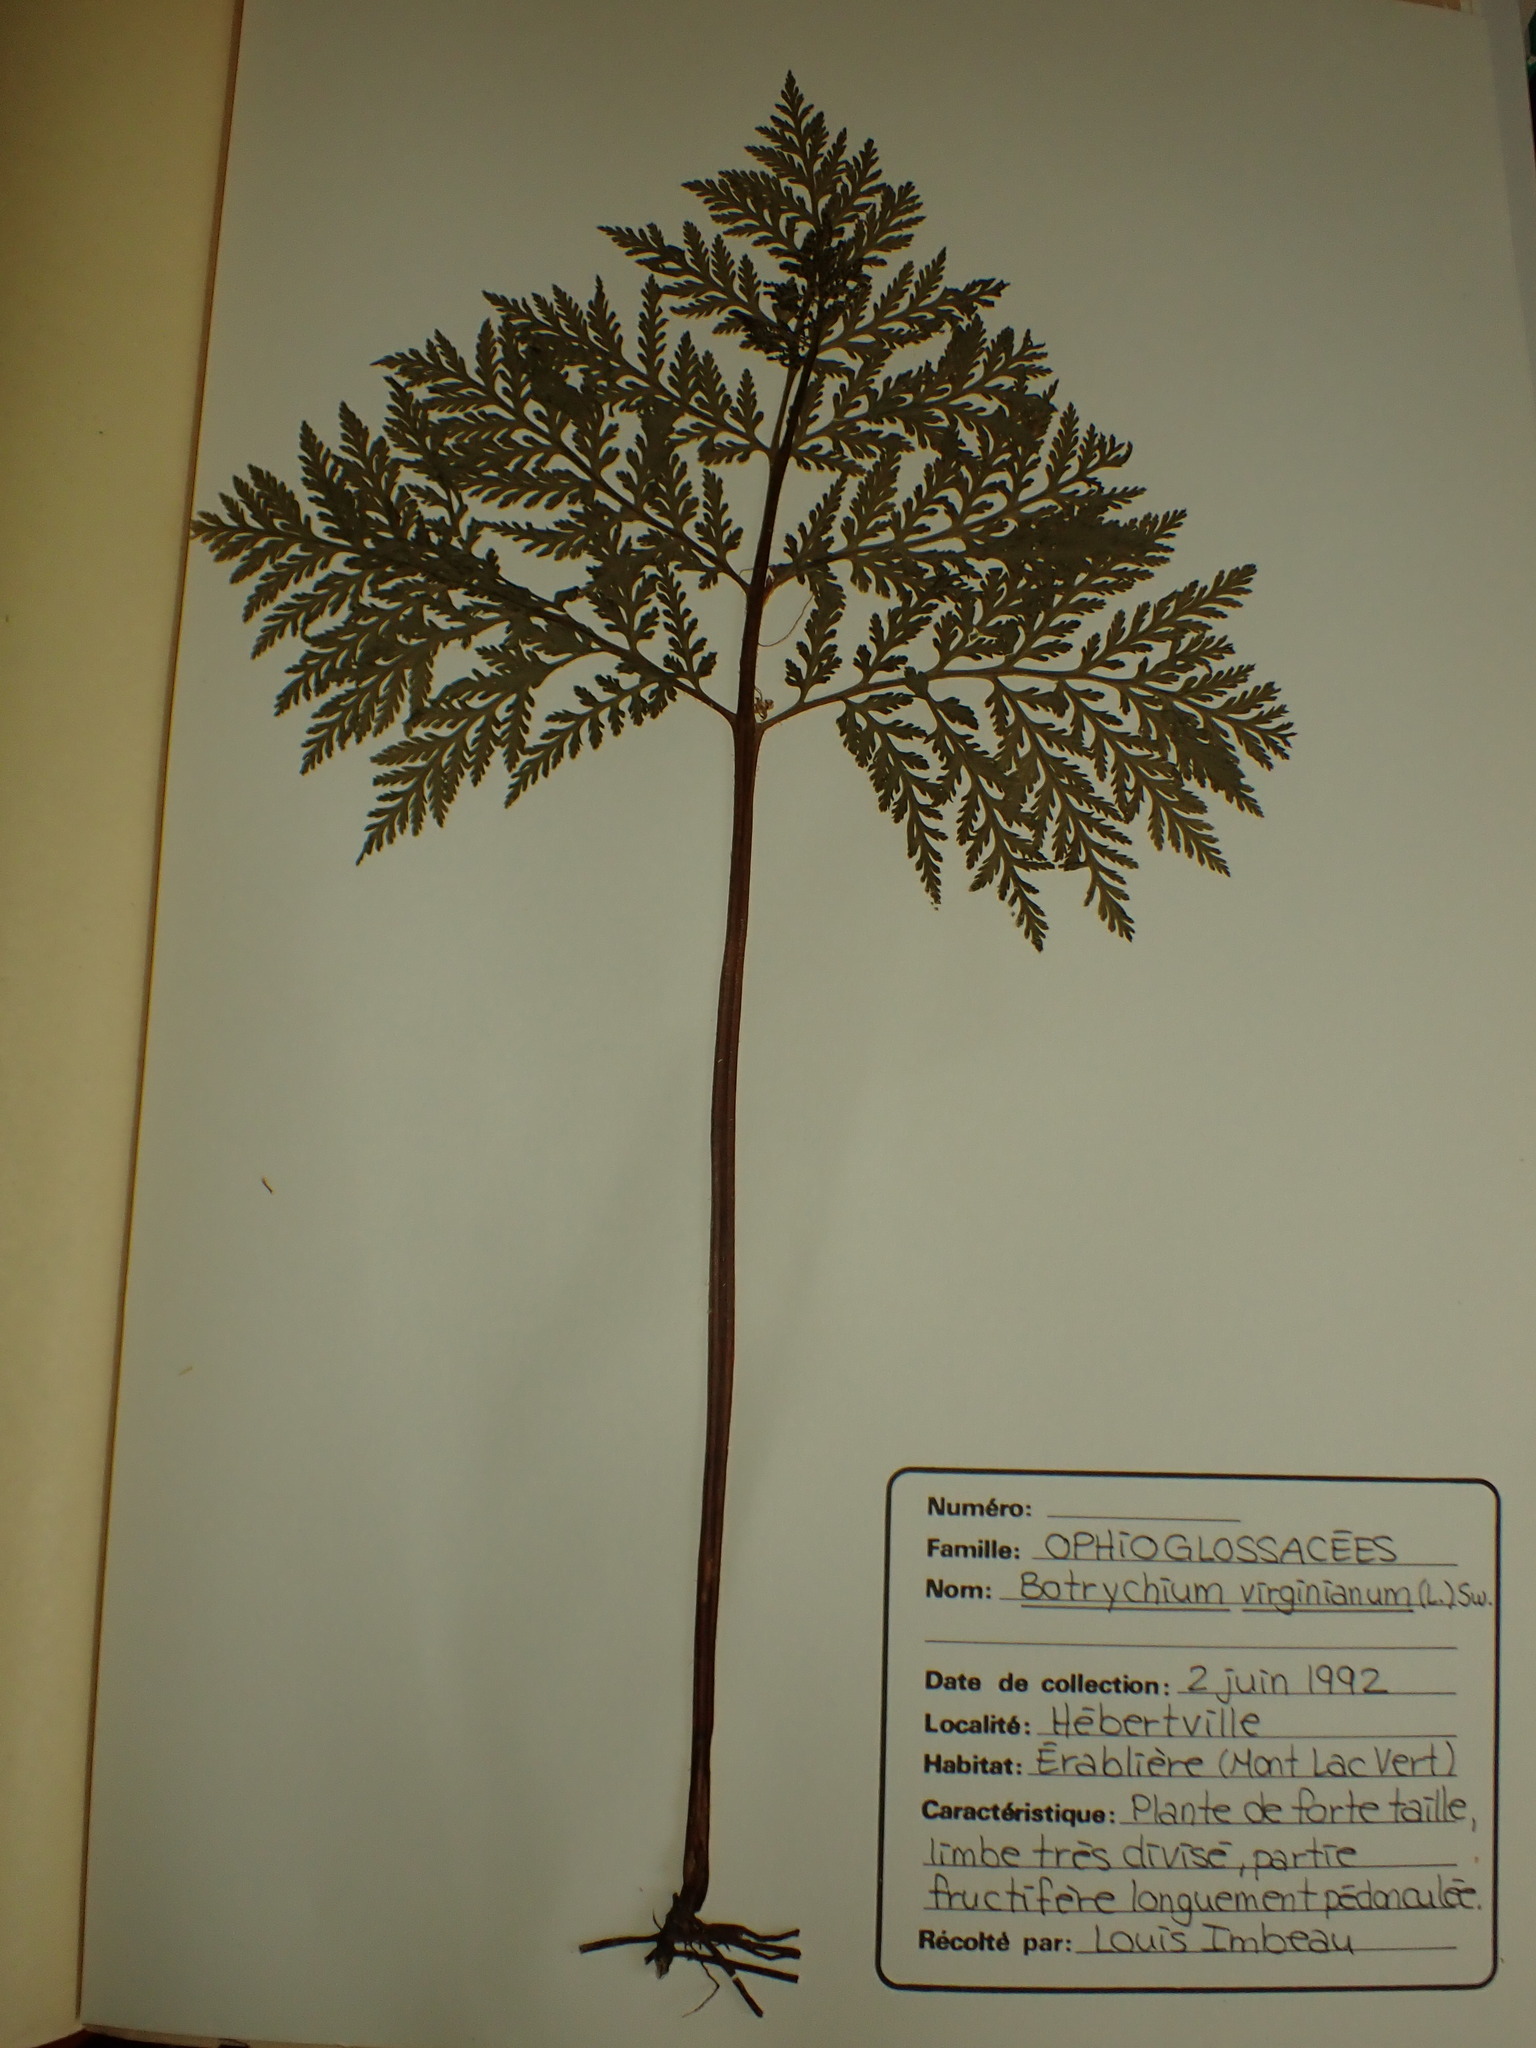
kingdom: Plantae
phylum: Tracheophyta
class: Polypodiopsida
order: Ophioglossales
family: Ophioglossaceae
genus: Botrypus
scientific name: Botrypus virginianus
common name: Common grapefern
